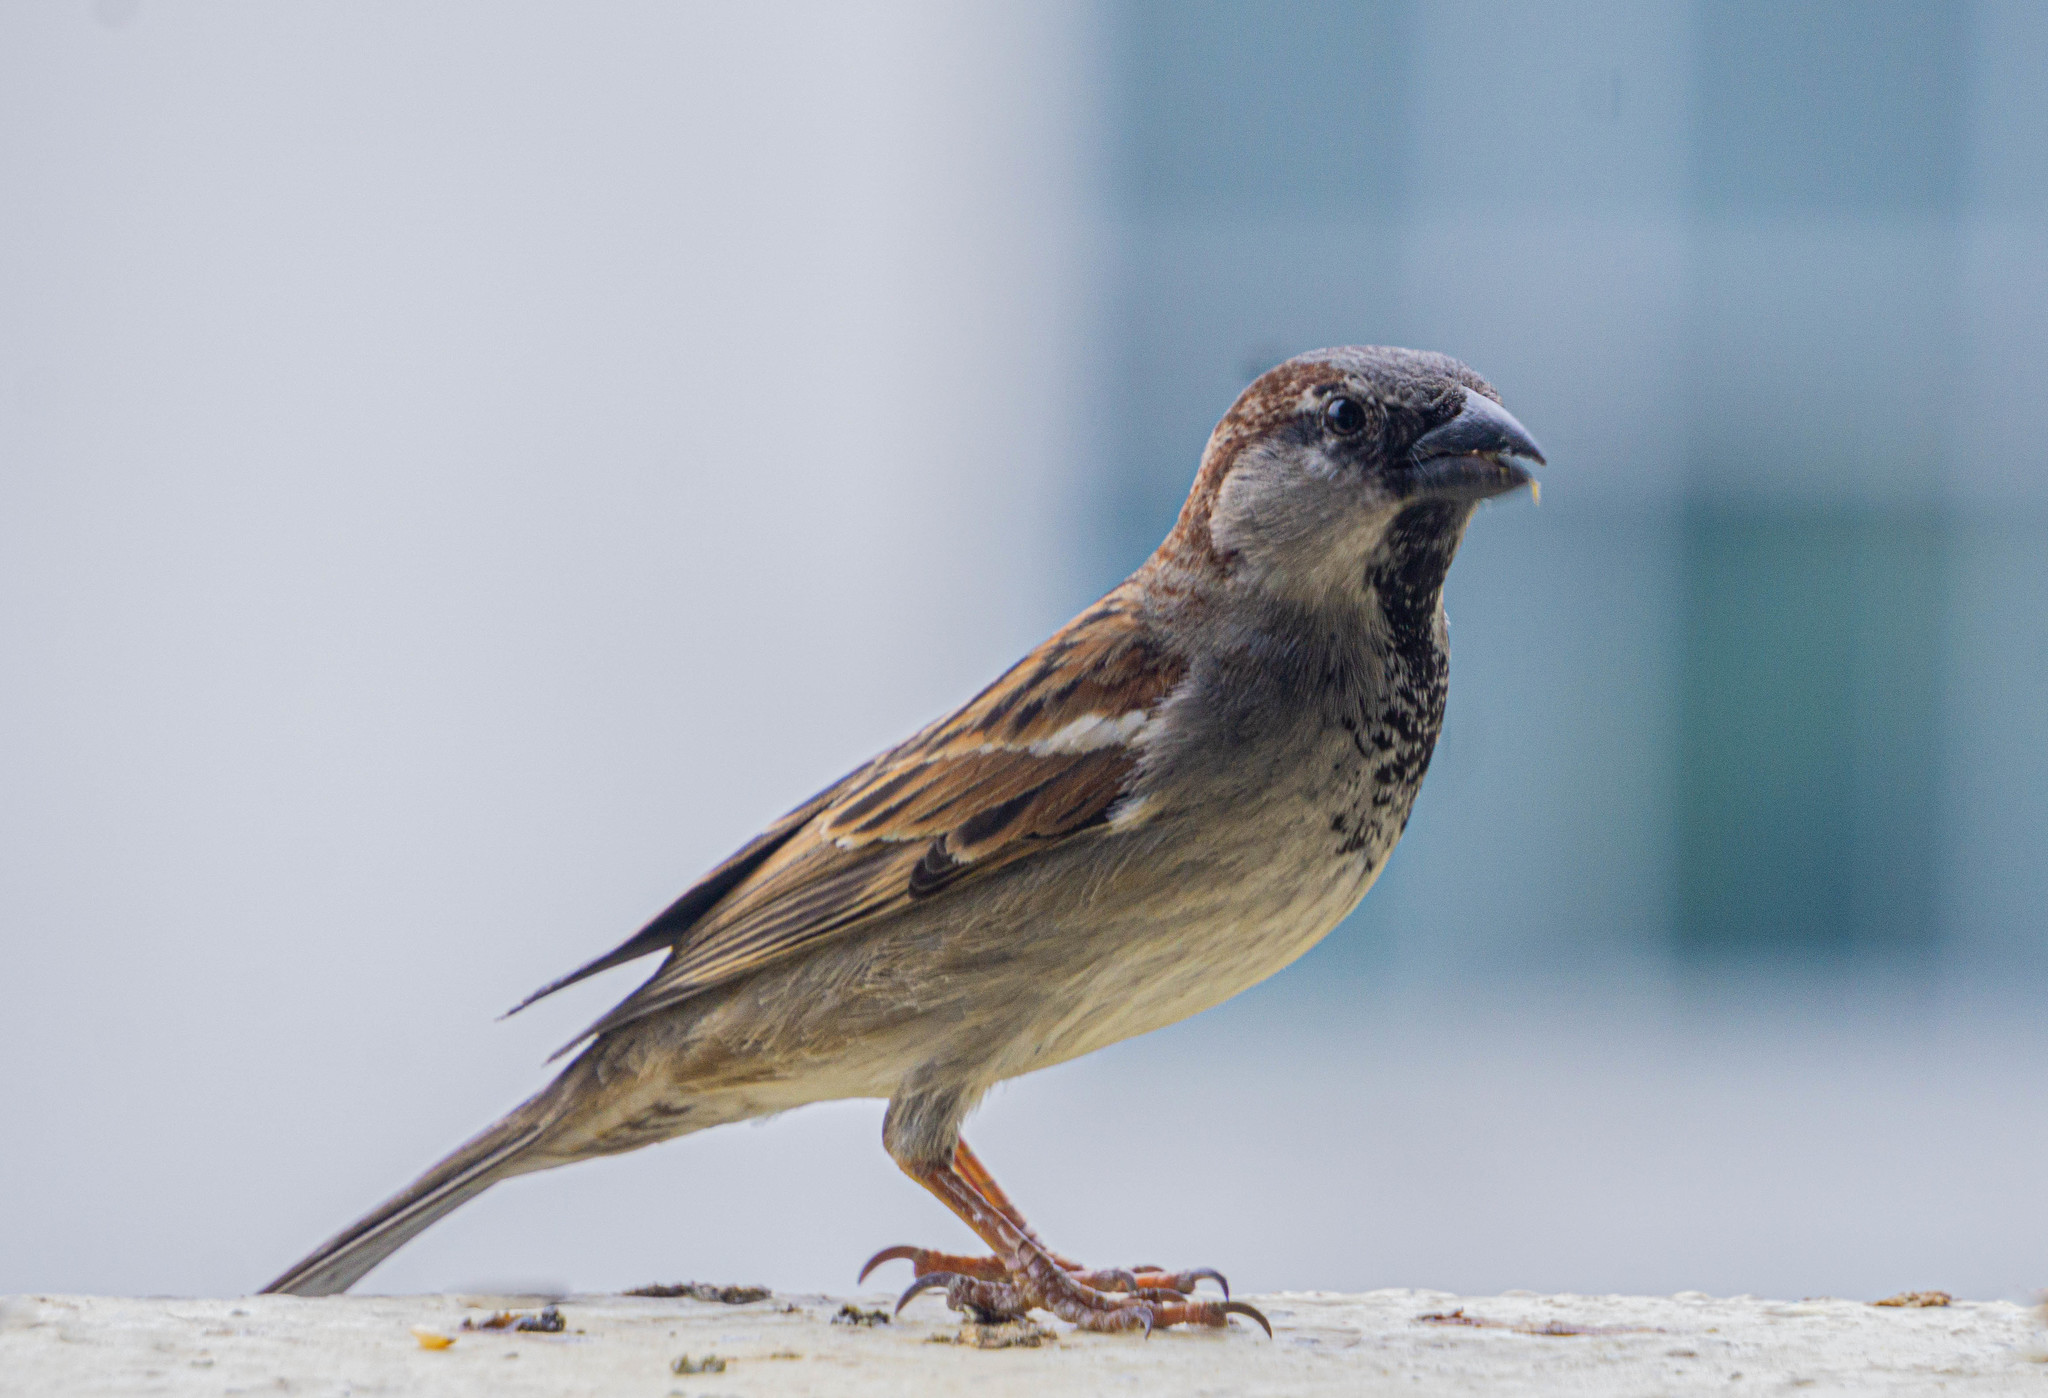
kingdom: Animalia
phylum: Chordata
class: Aves
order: Passeriformes
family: Passeridae
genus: Passer
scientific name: Passer domesticus
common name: House sparrow
